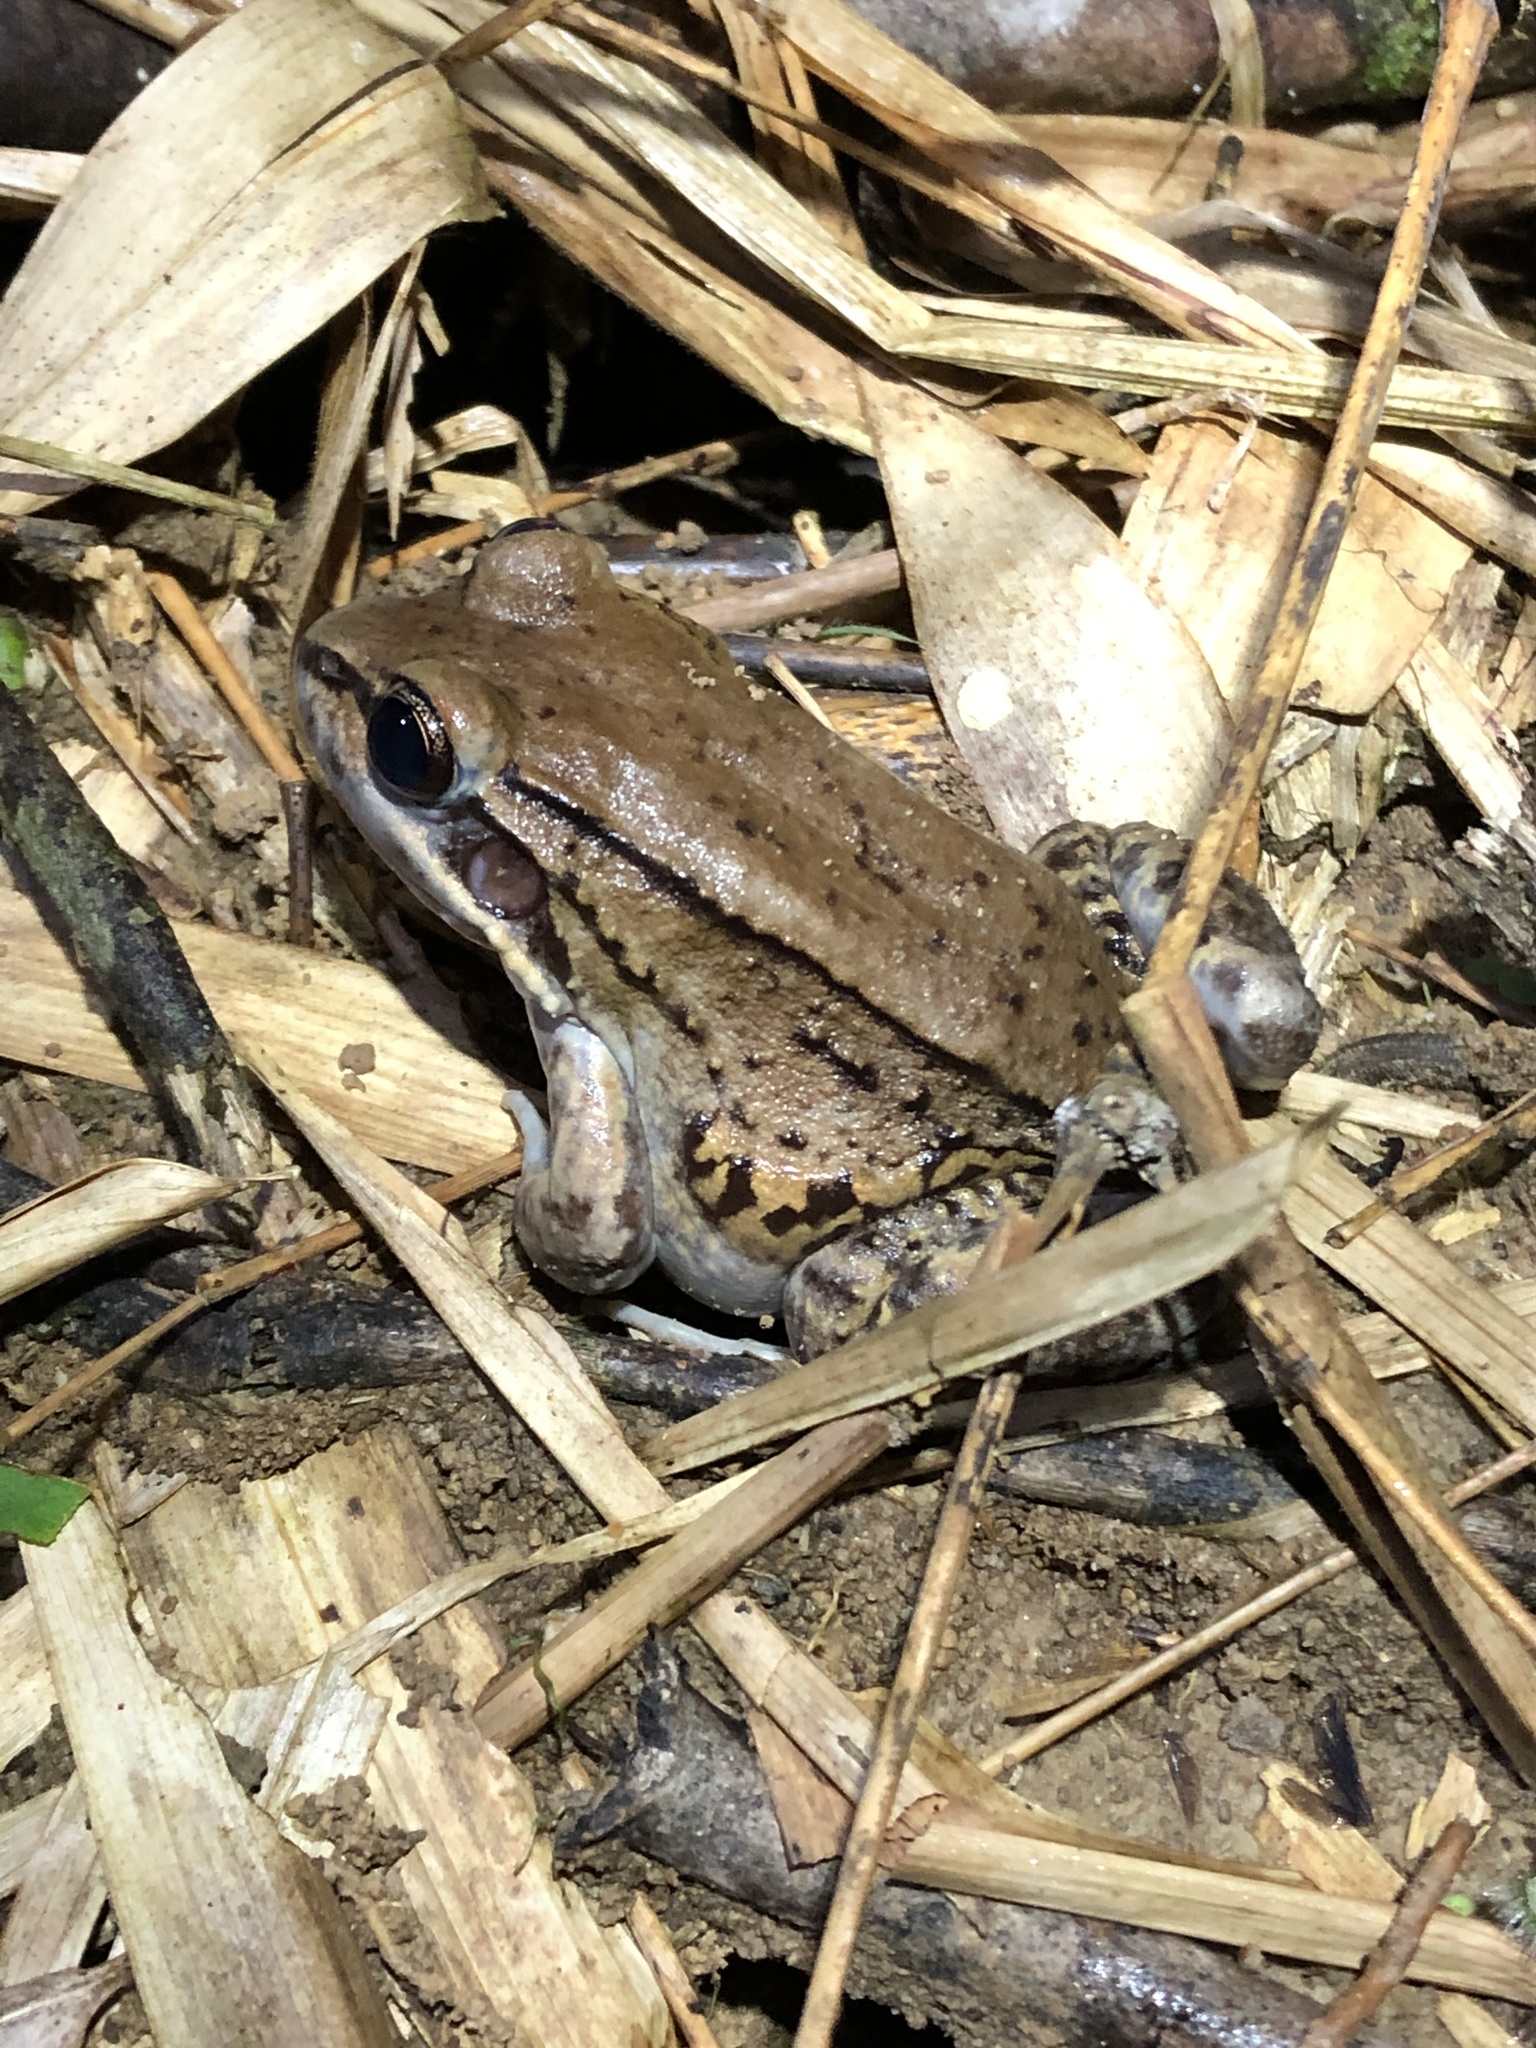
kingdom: Animalia
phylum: Chordata
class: Amphibia
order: Anura
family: Leptodactylidae
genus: Leptodactylus
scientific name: Leptodactylus rhodonotus
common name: Peru white-lipped frog
